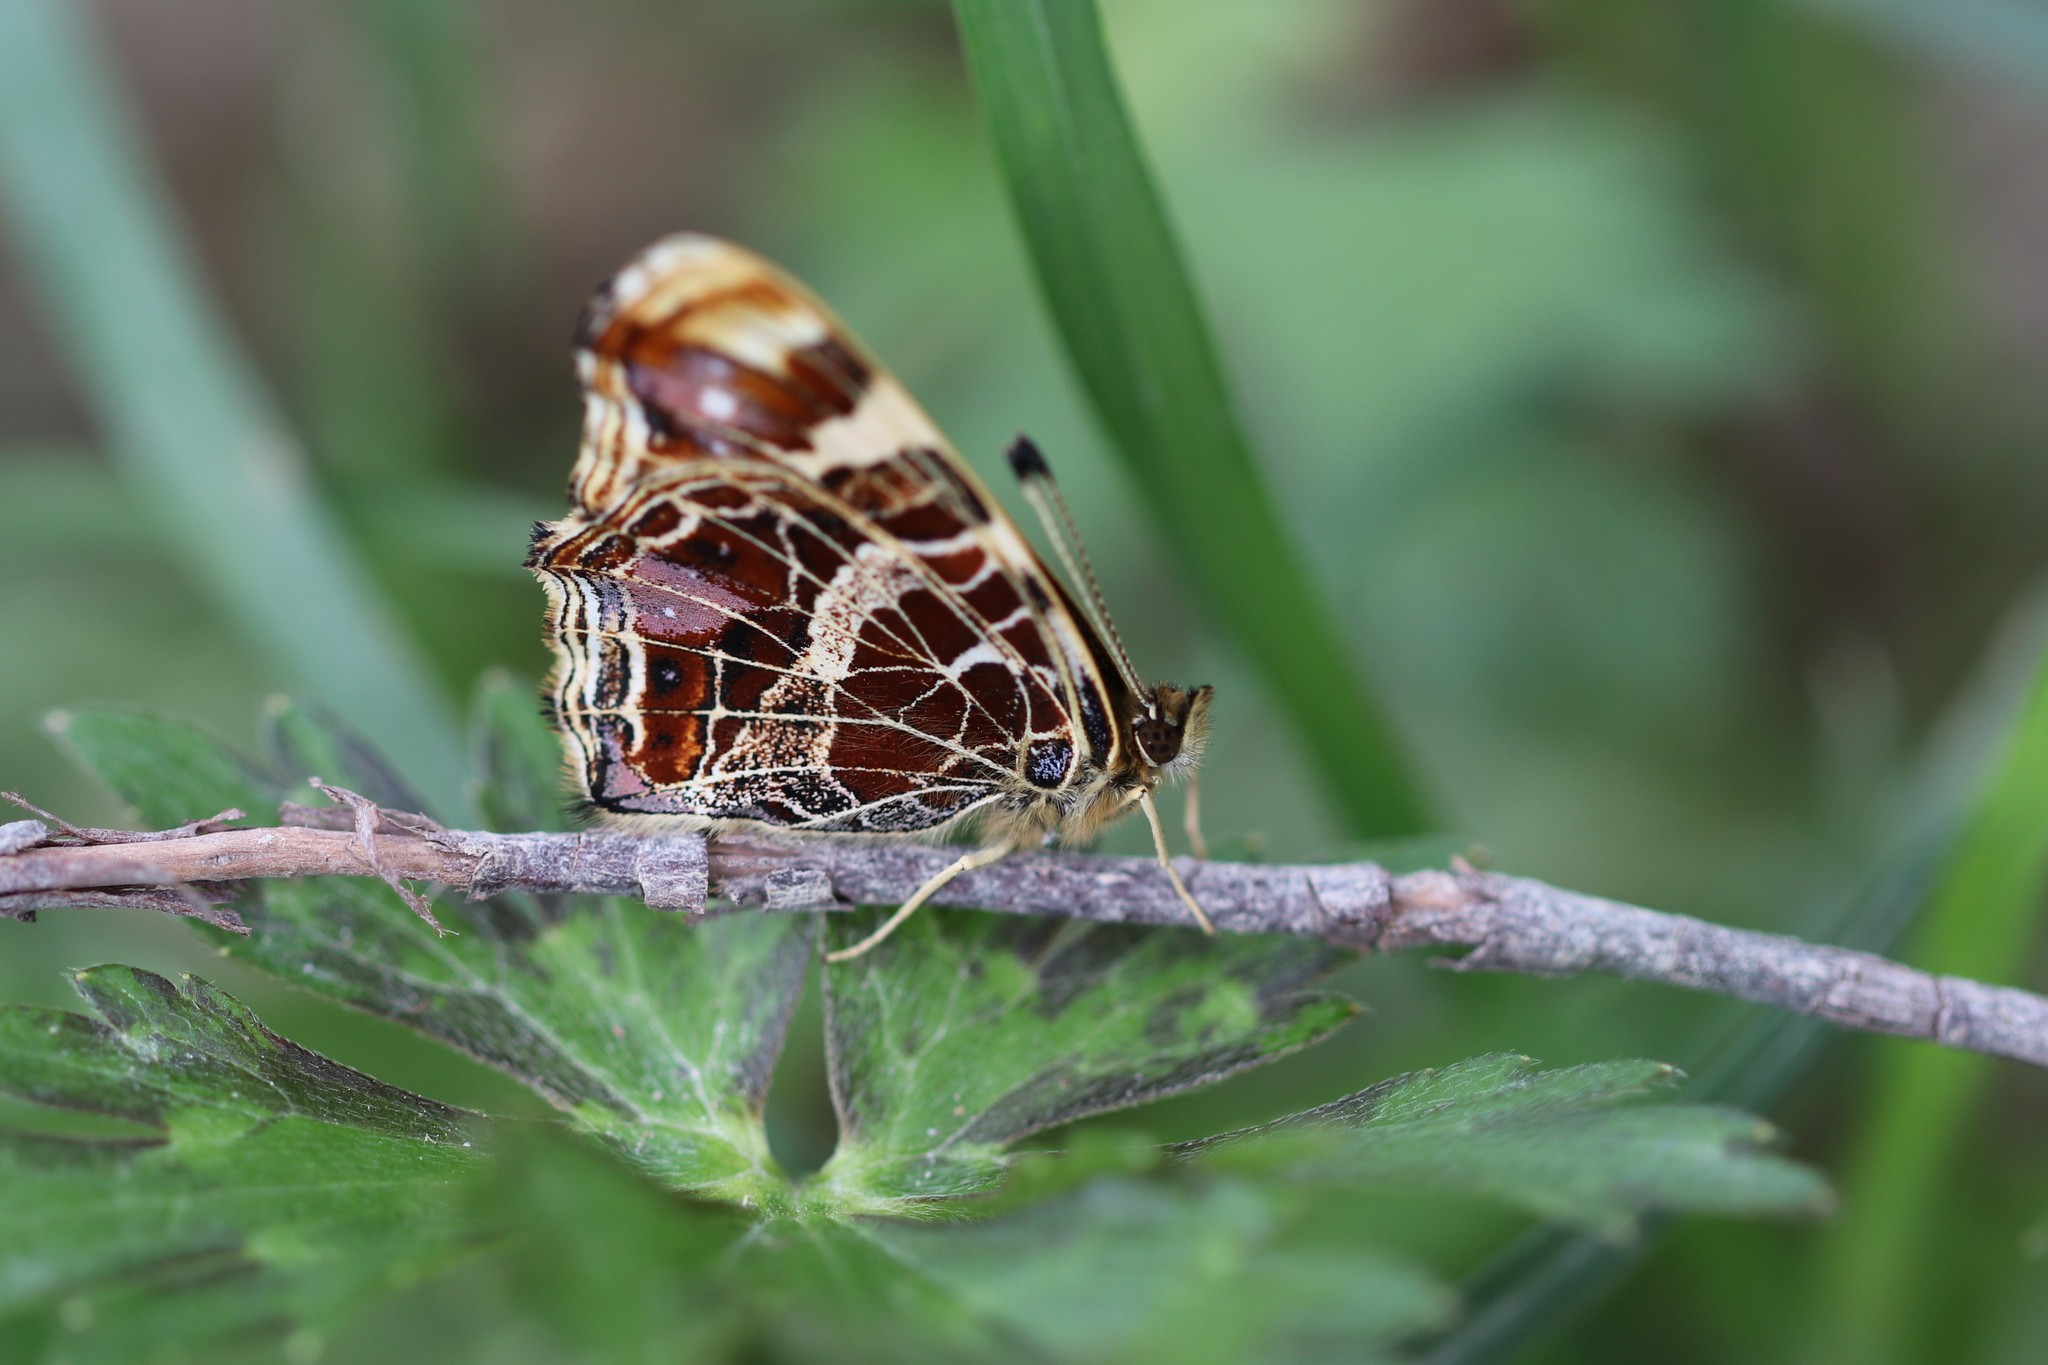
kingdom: Animalia
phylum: Arthropoda
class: Insecta
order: Lepidoptera
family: Nymphalidae
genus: Araschnia
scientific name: Araschnia levana
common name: Map butterfly
